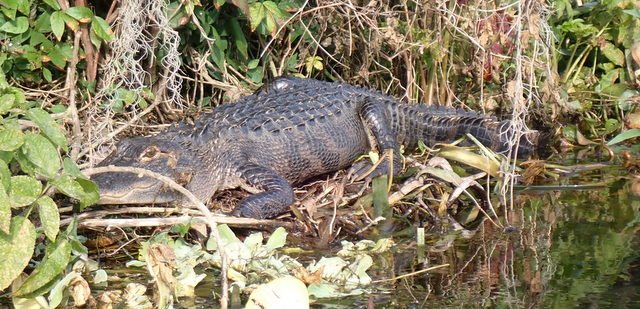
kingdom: Animalia
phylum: Chordata
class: Crocodylia
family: Alligatoridae
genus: Alligator
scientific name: Alligator mississippiensis
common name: American alligator
